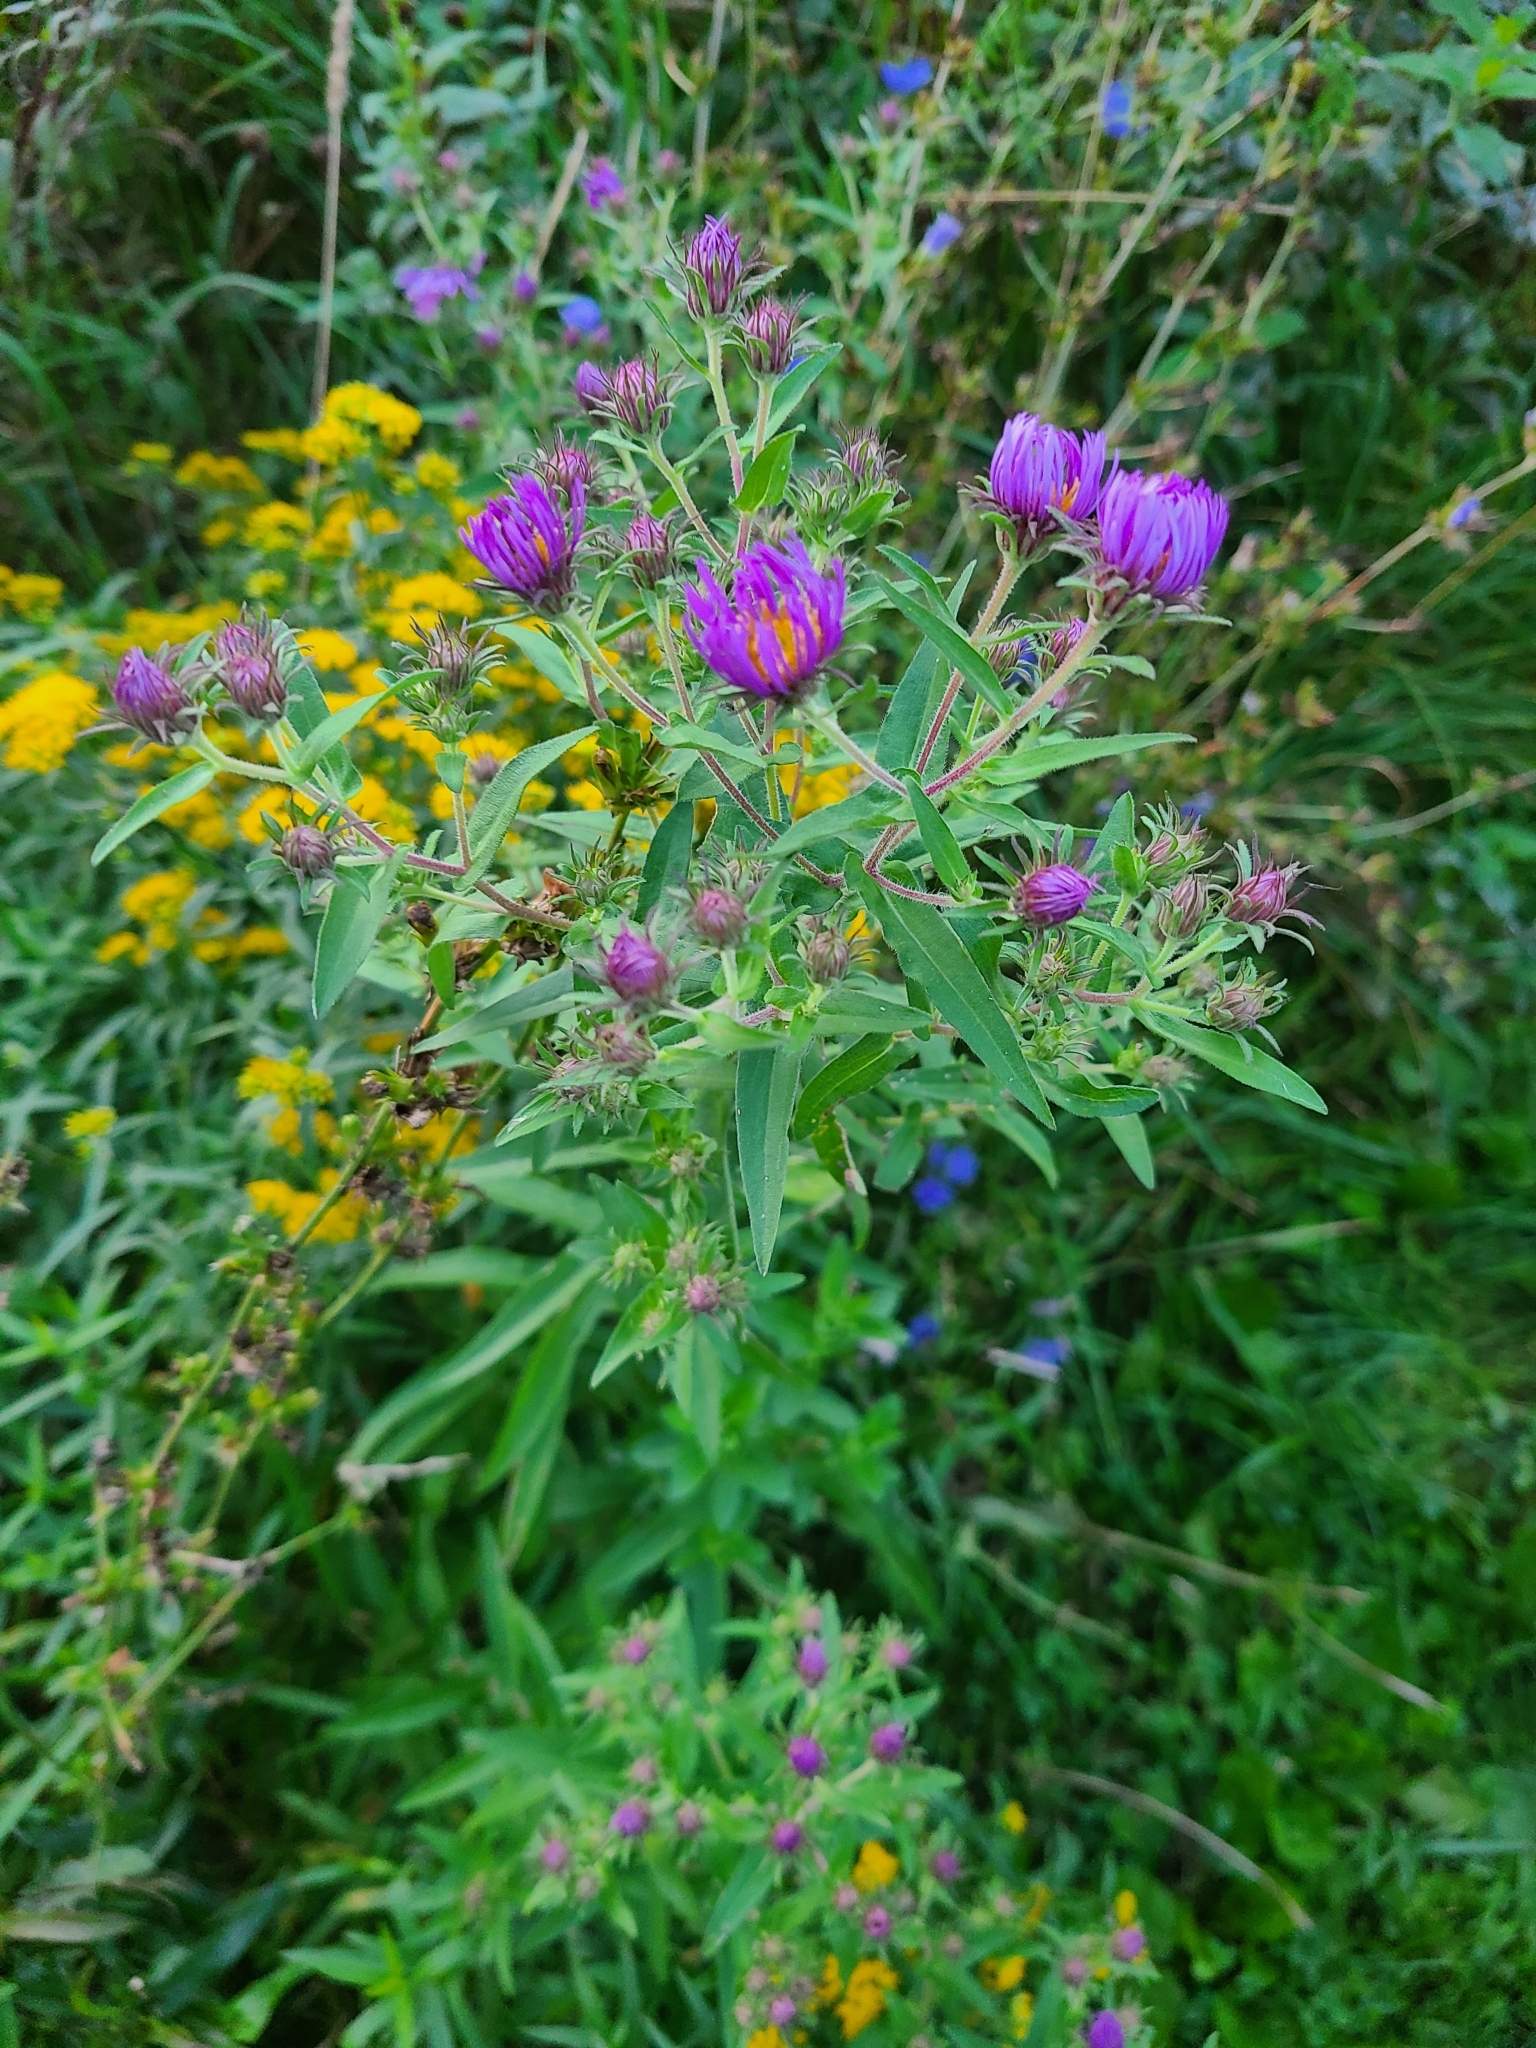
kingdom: Plantae
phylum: Tracheophyta
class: Magnoliopsida
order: Asterales
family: Asteraceae
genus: Symphyotrichum
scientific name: Symphyotrichum novae-angliae
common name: Michaelmas daisy
